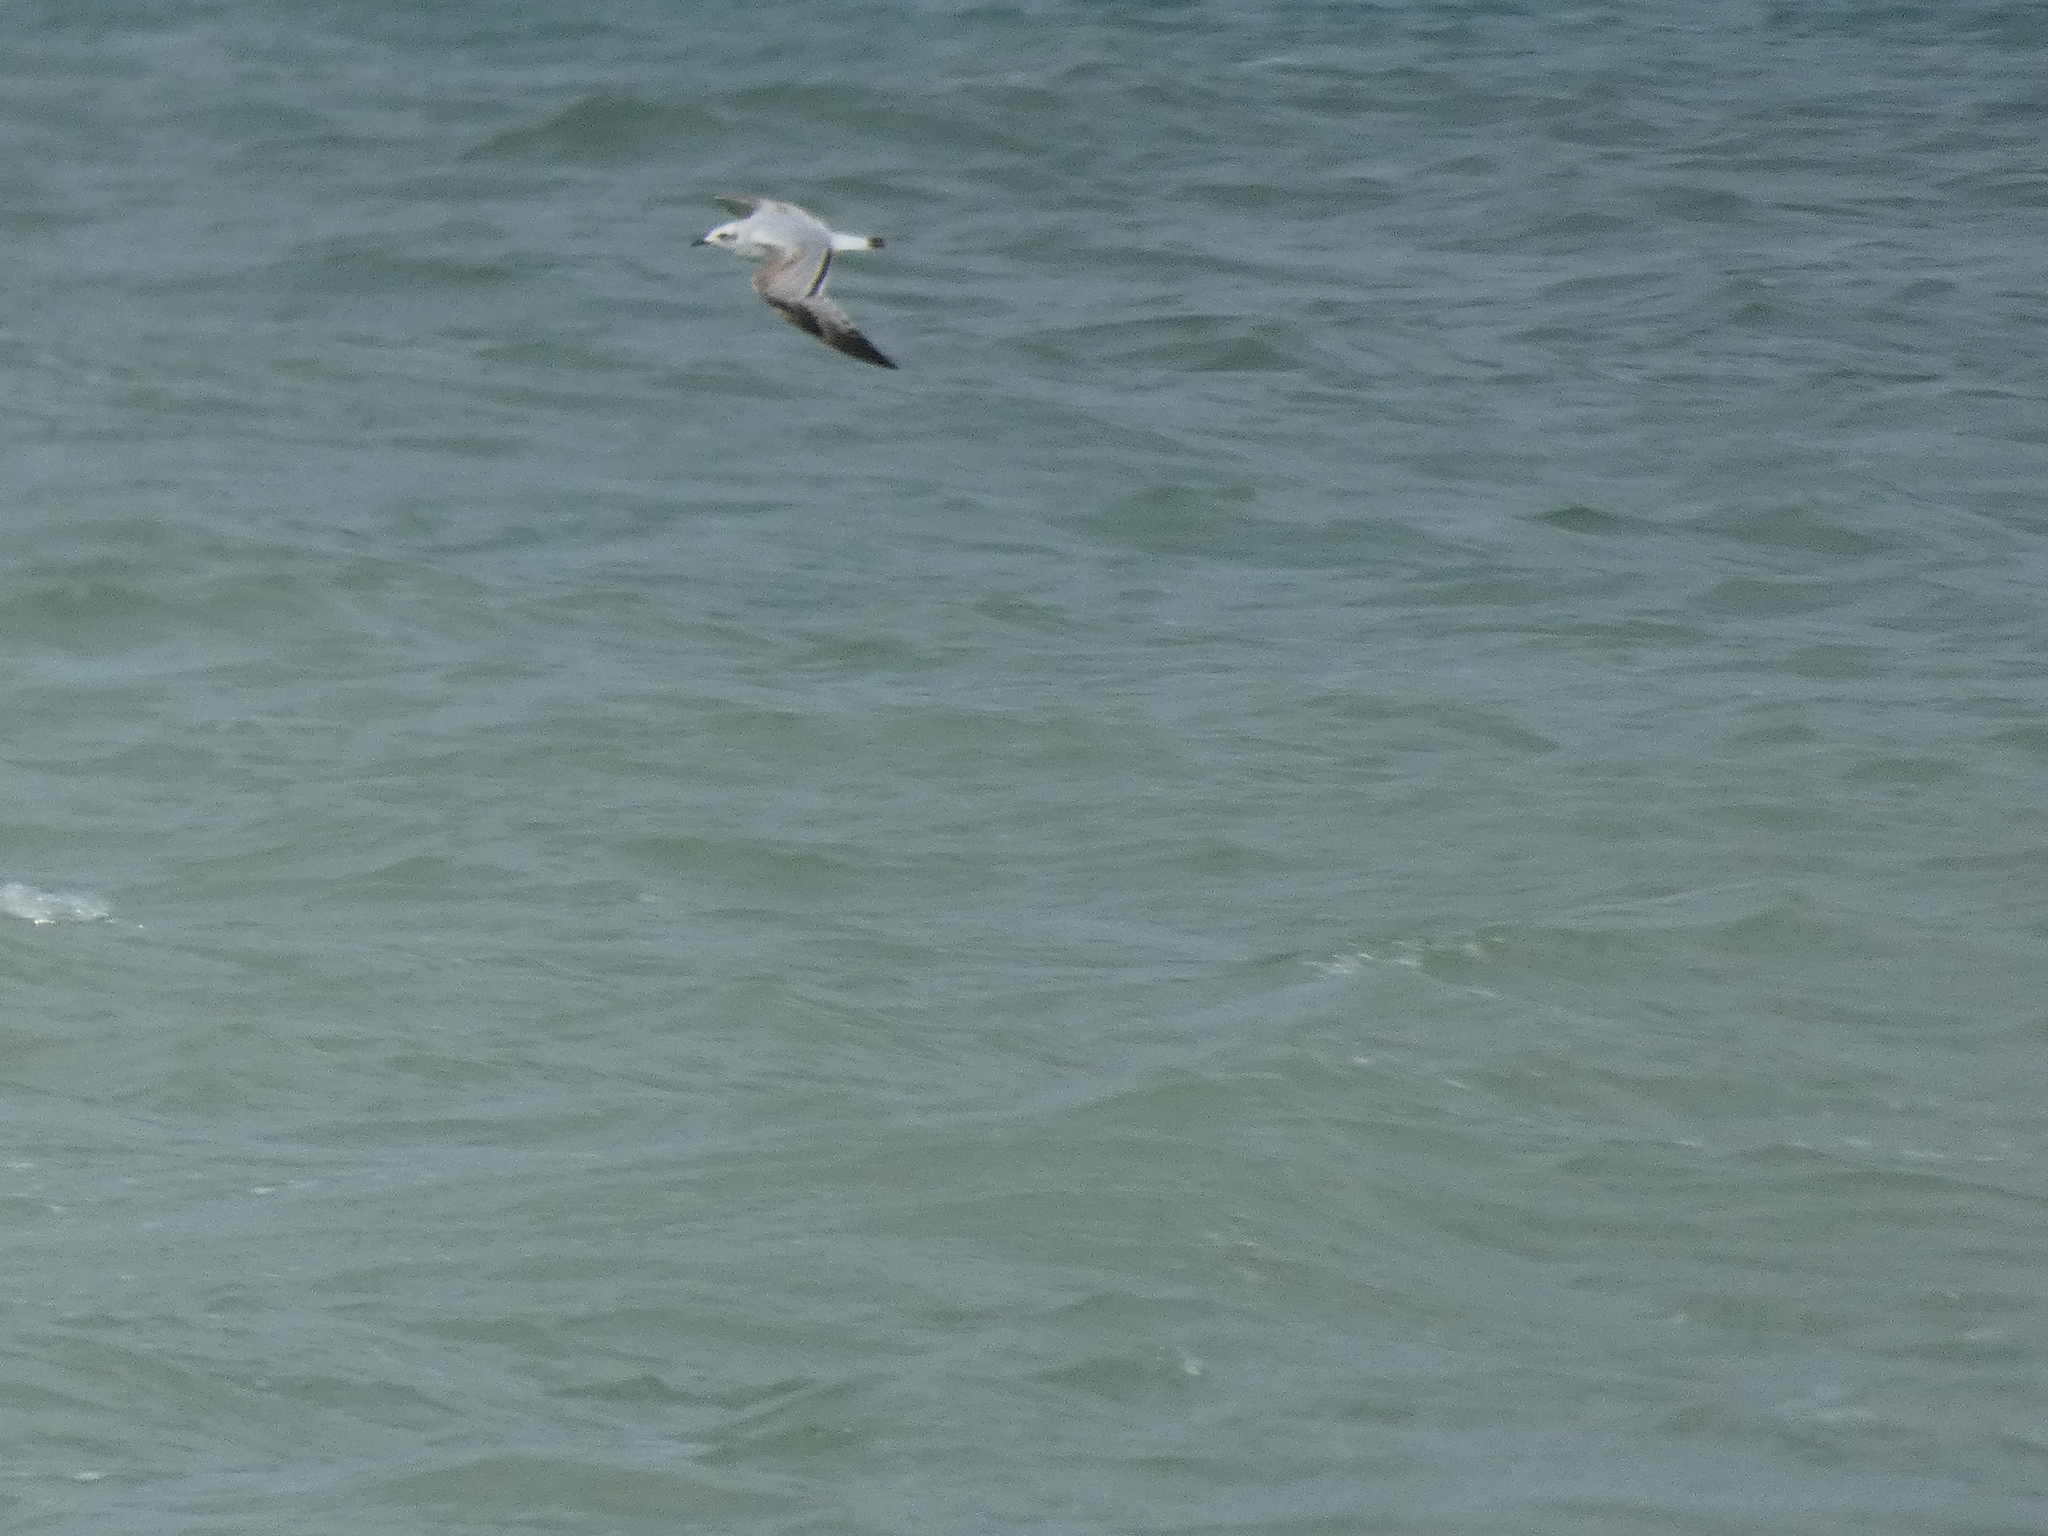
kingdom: Animalia
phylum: Chordata
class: Aves
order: Charadriiformes
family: Laridae
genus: Ichthyaetus
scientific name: Ichthyaetus melanocephalus
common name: Mediterranean gull
